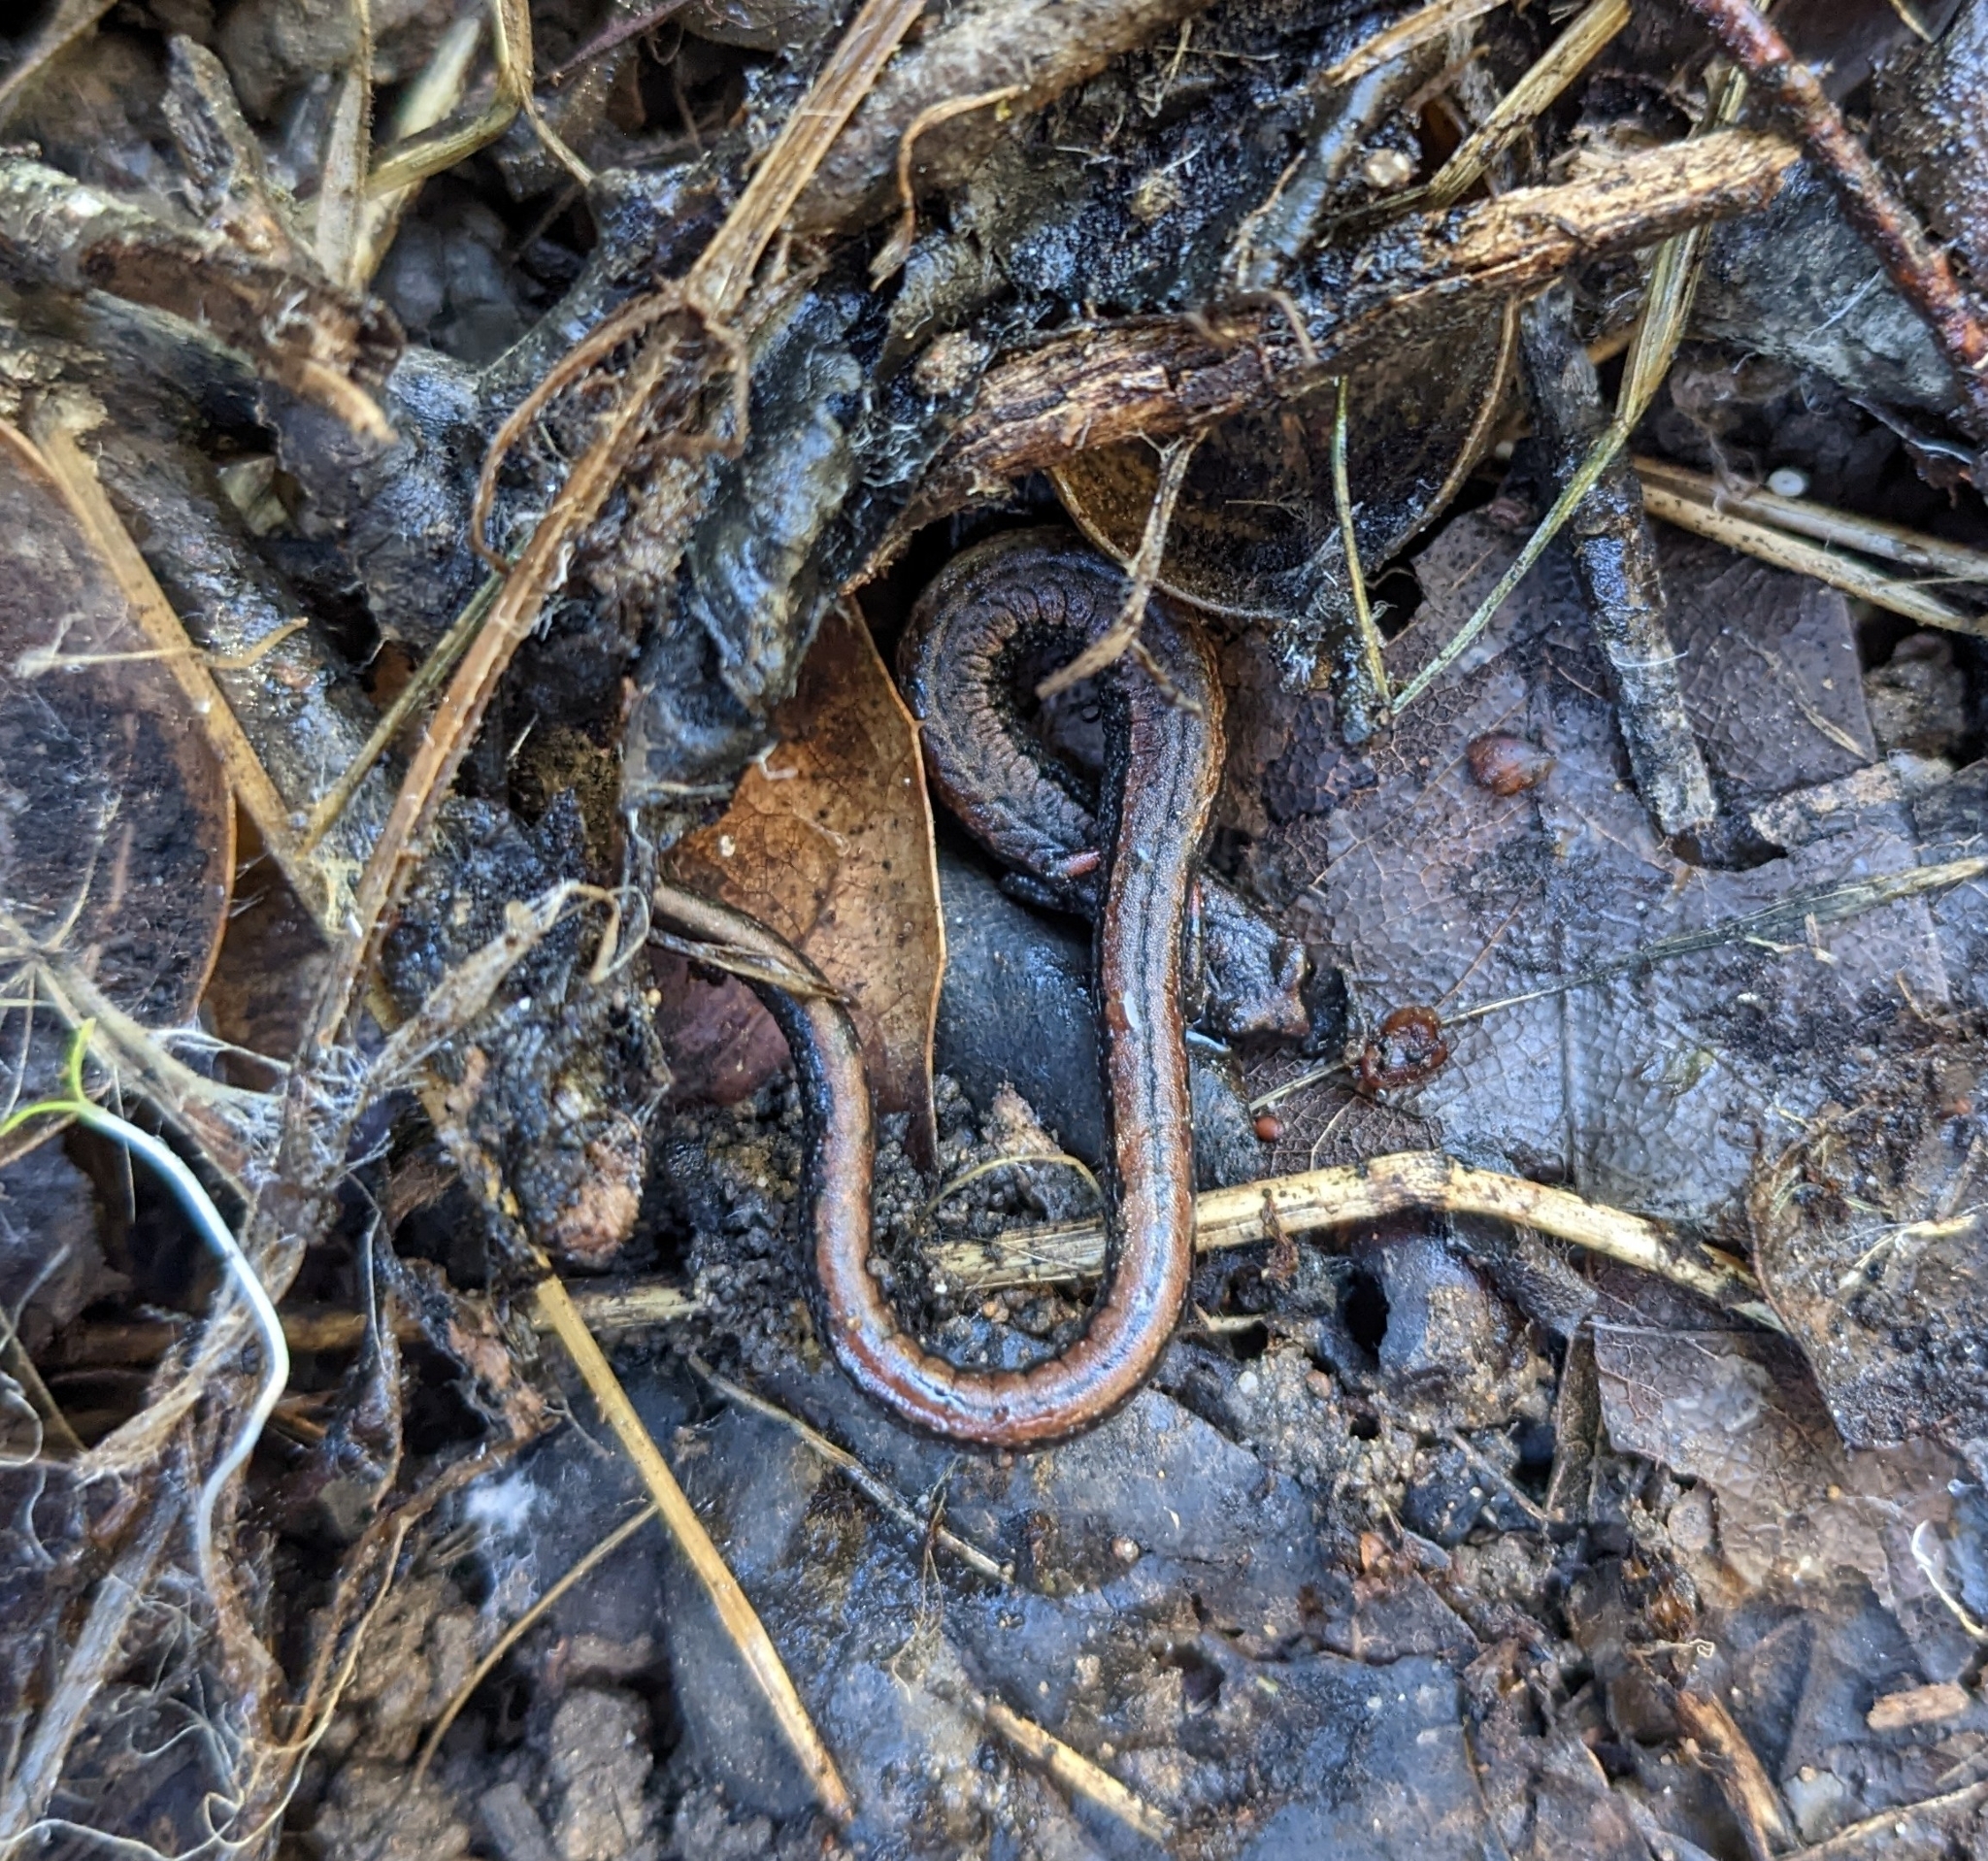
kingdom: Animalia
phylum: Chordata
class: Amphibia
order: Caudata
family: Plethodontidae
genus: Batrachoseps
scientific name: Batrachoseps attenuatus
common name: California slender salamander
